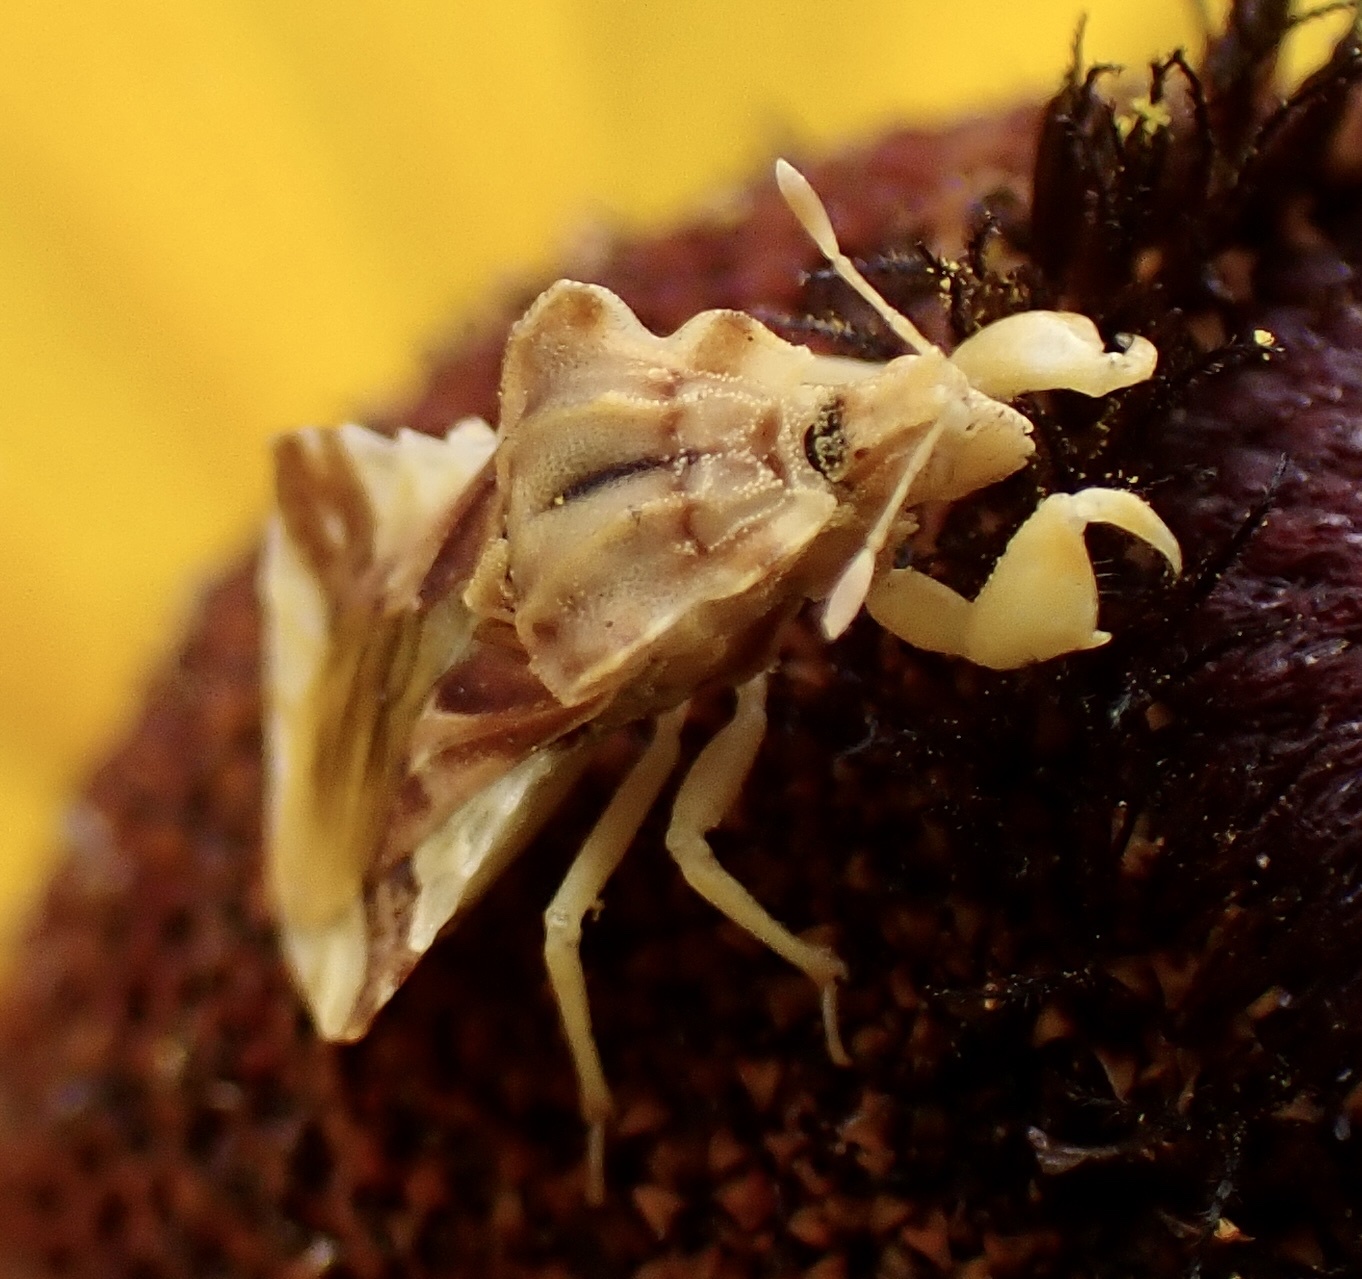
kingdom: Animalia
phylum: Arthropoda
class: Insecta
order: Hemiptera
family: Reduviidae
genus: Phymata
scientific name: Phymata fasciata
